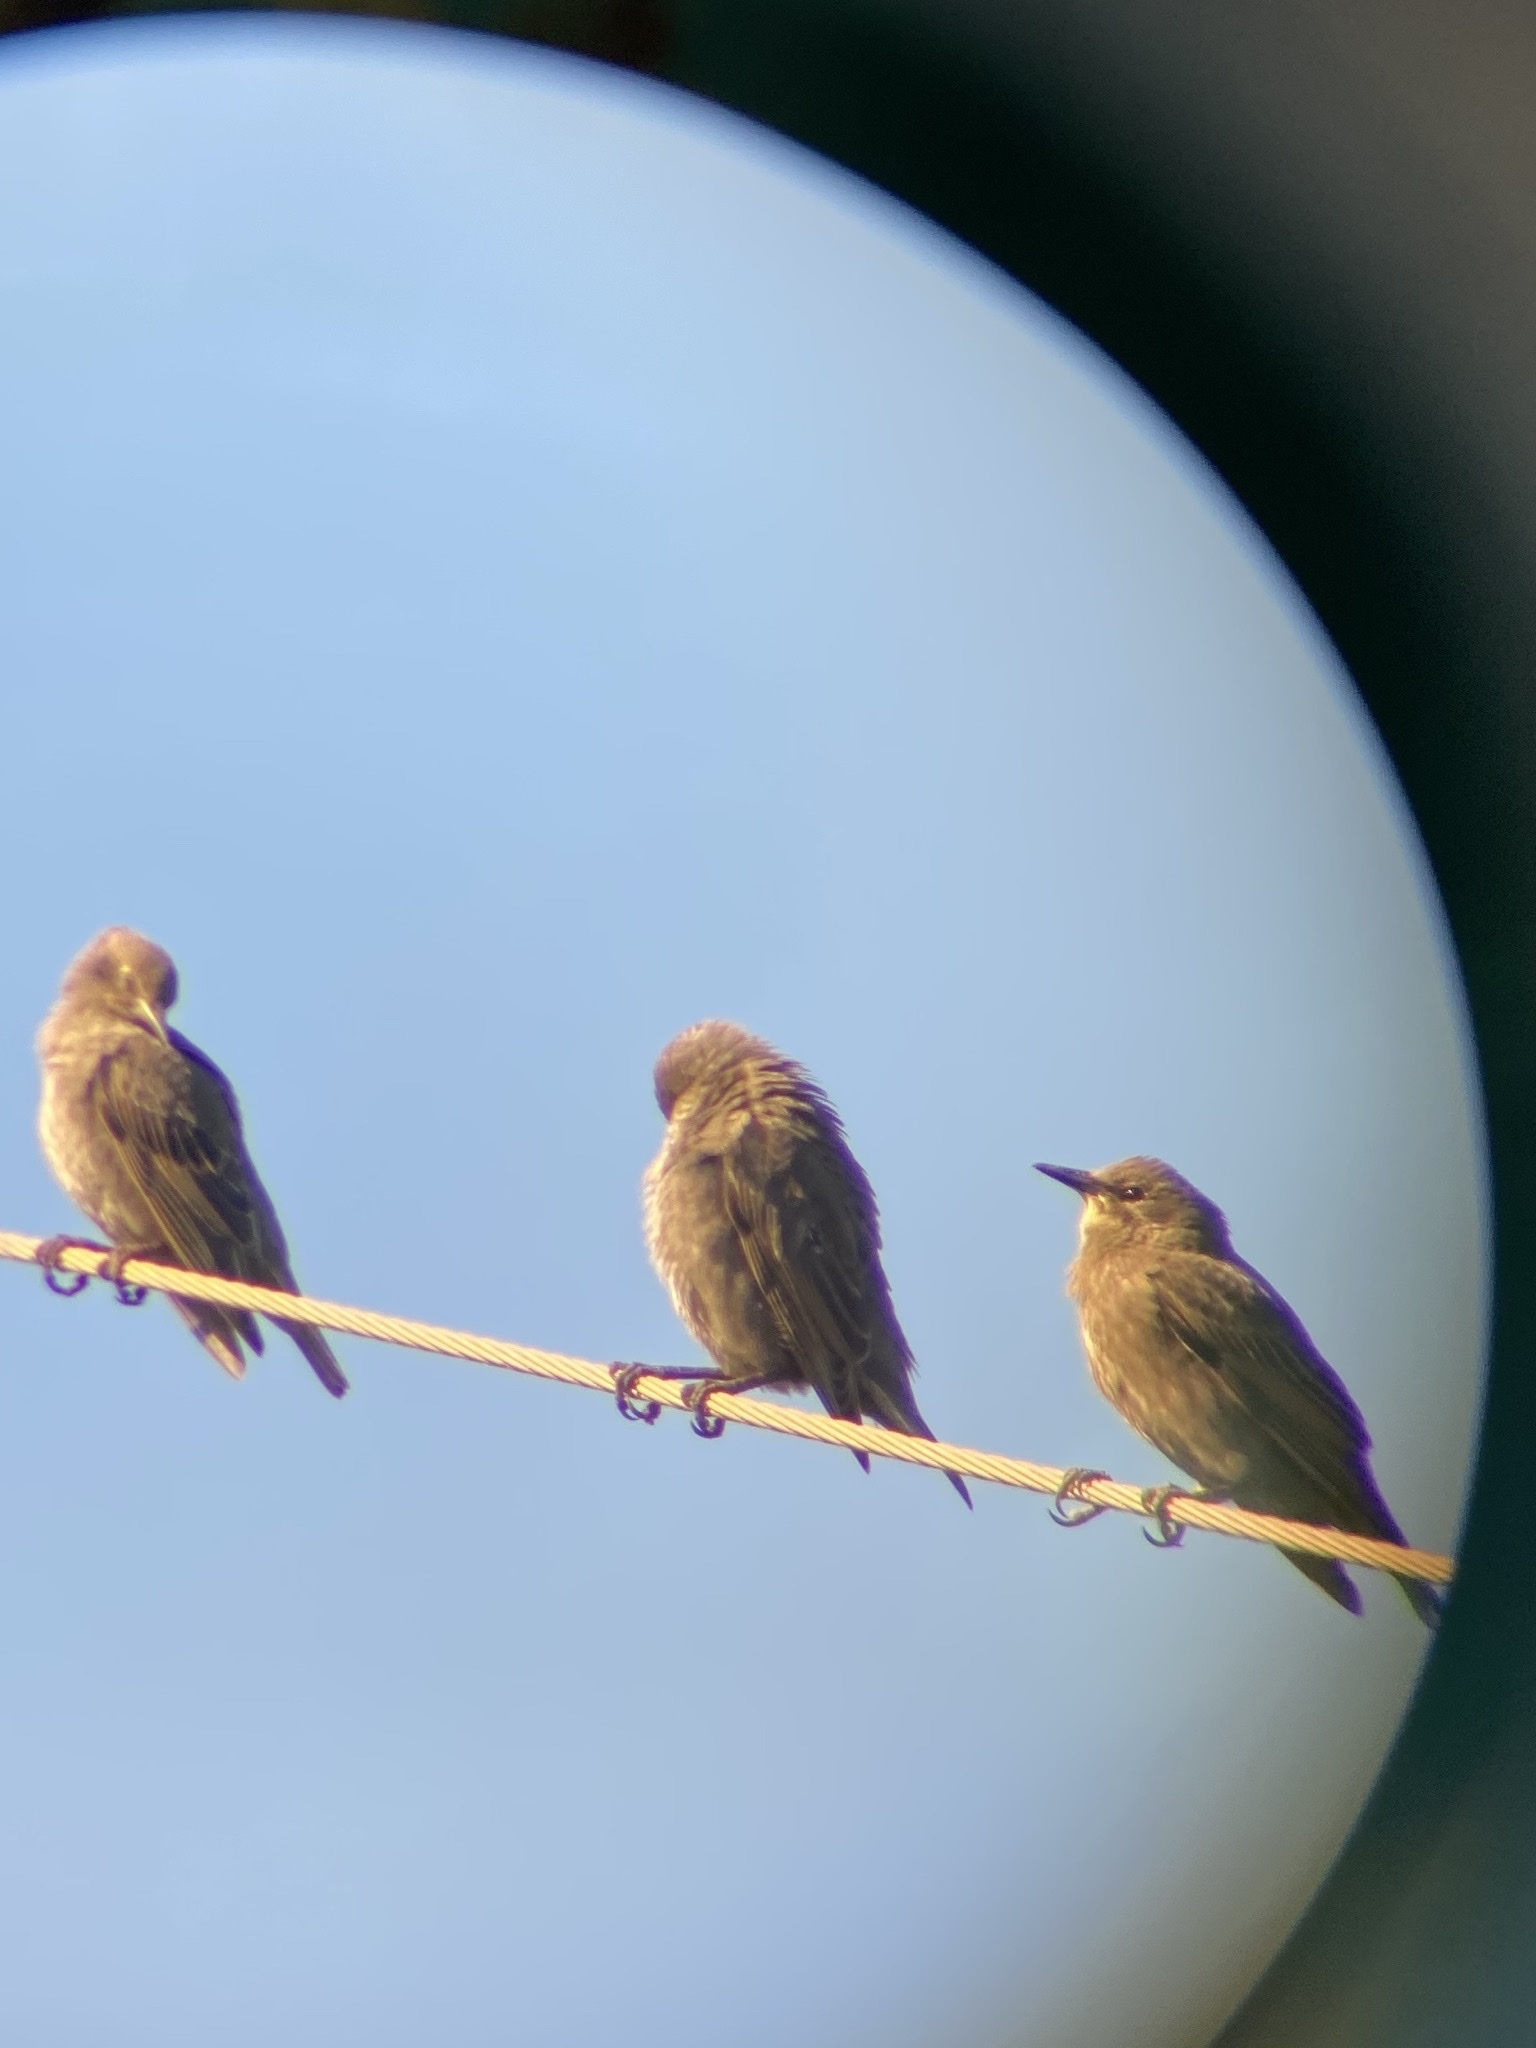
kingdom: Animalia
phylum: Chordata
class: Aves
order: Passeriformes
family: Sturnidae
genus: Sturnus
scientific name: Sturnus vulgaris
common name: Common starling
